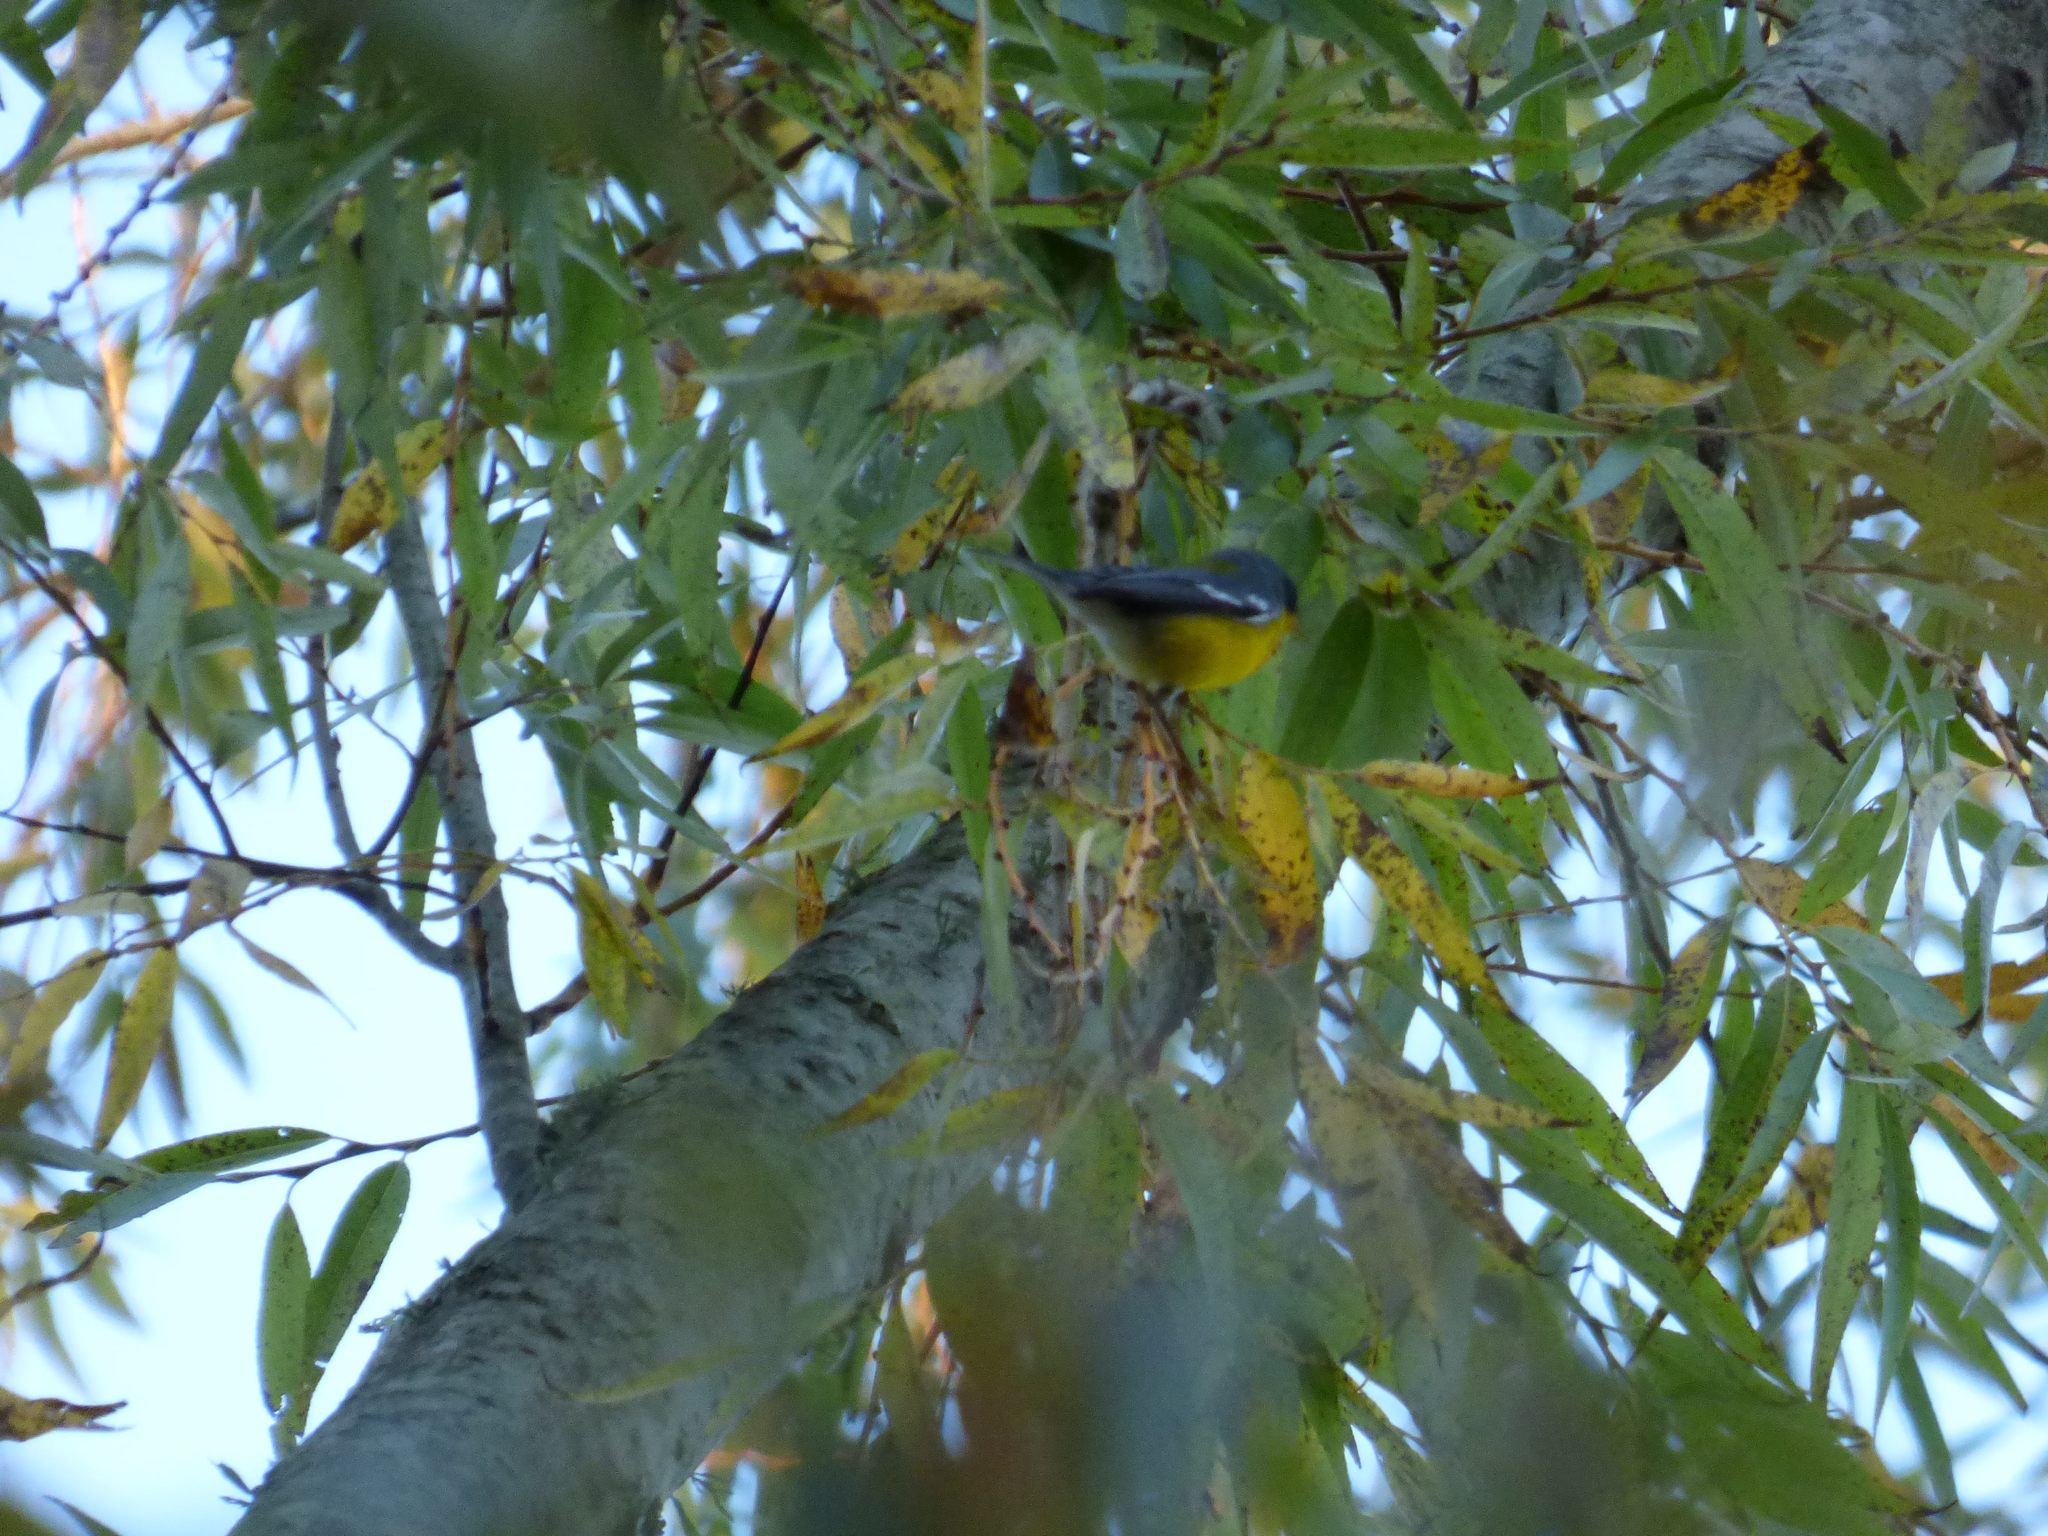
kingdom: Animalia
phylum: Chordata
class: Aves
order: Passeriformes
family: Parulidae
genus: Setophaga
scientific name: Setophaga pitiayumi
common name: Tropical parula
